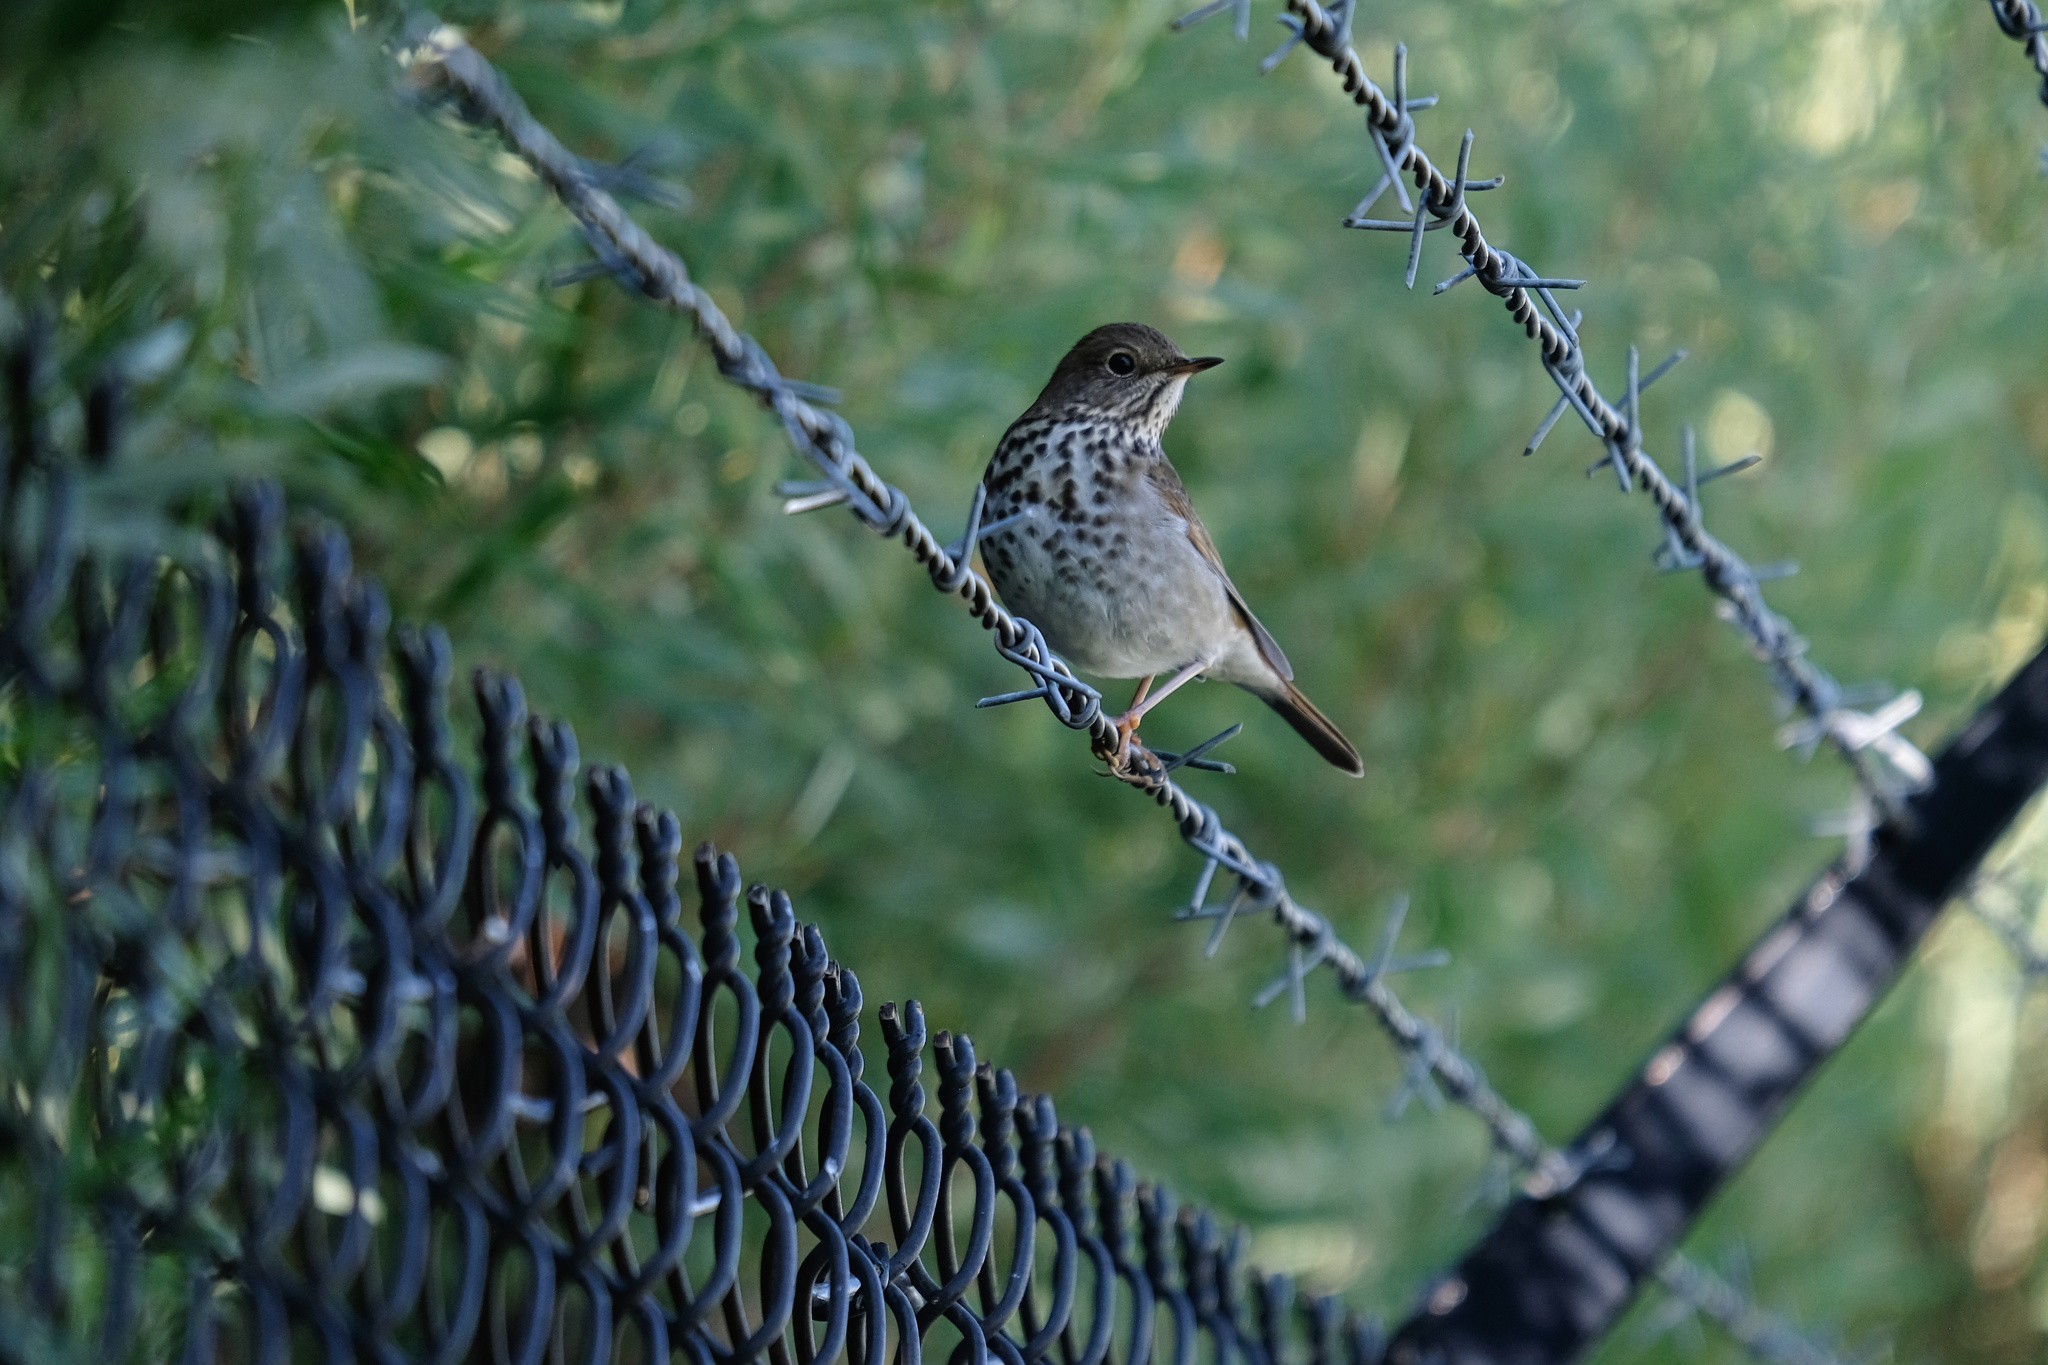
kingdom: Animalia
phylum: Chordata
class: Aves
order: Passeriformes
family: Turdidae
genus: Catharus
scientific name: Catharus guttatus
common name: Hermit thrush
